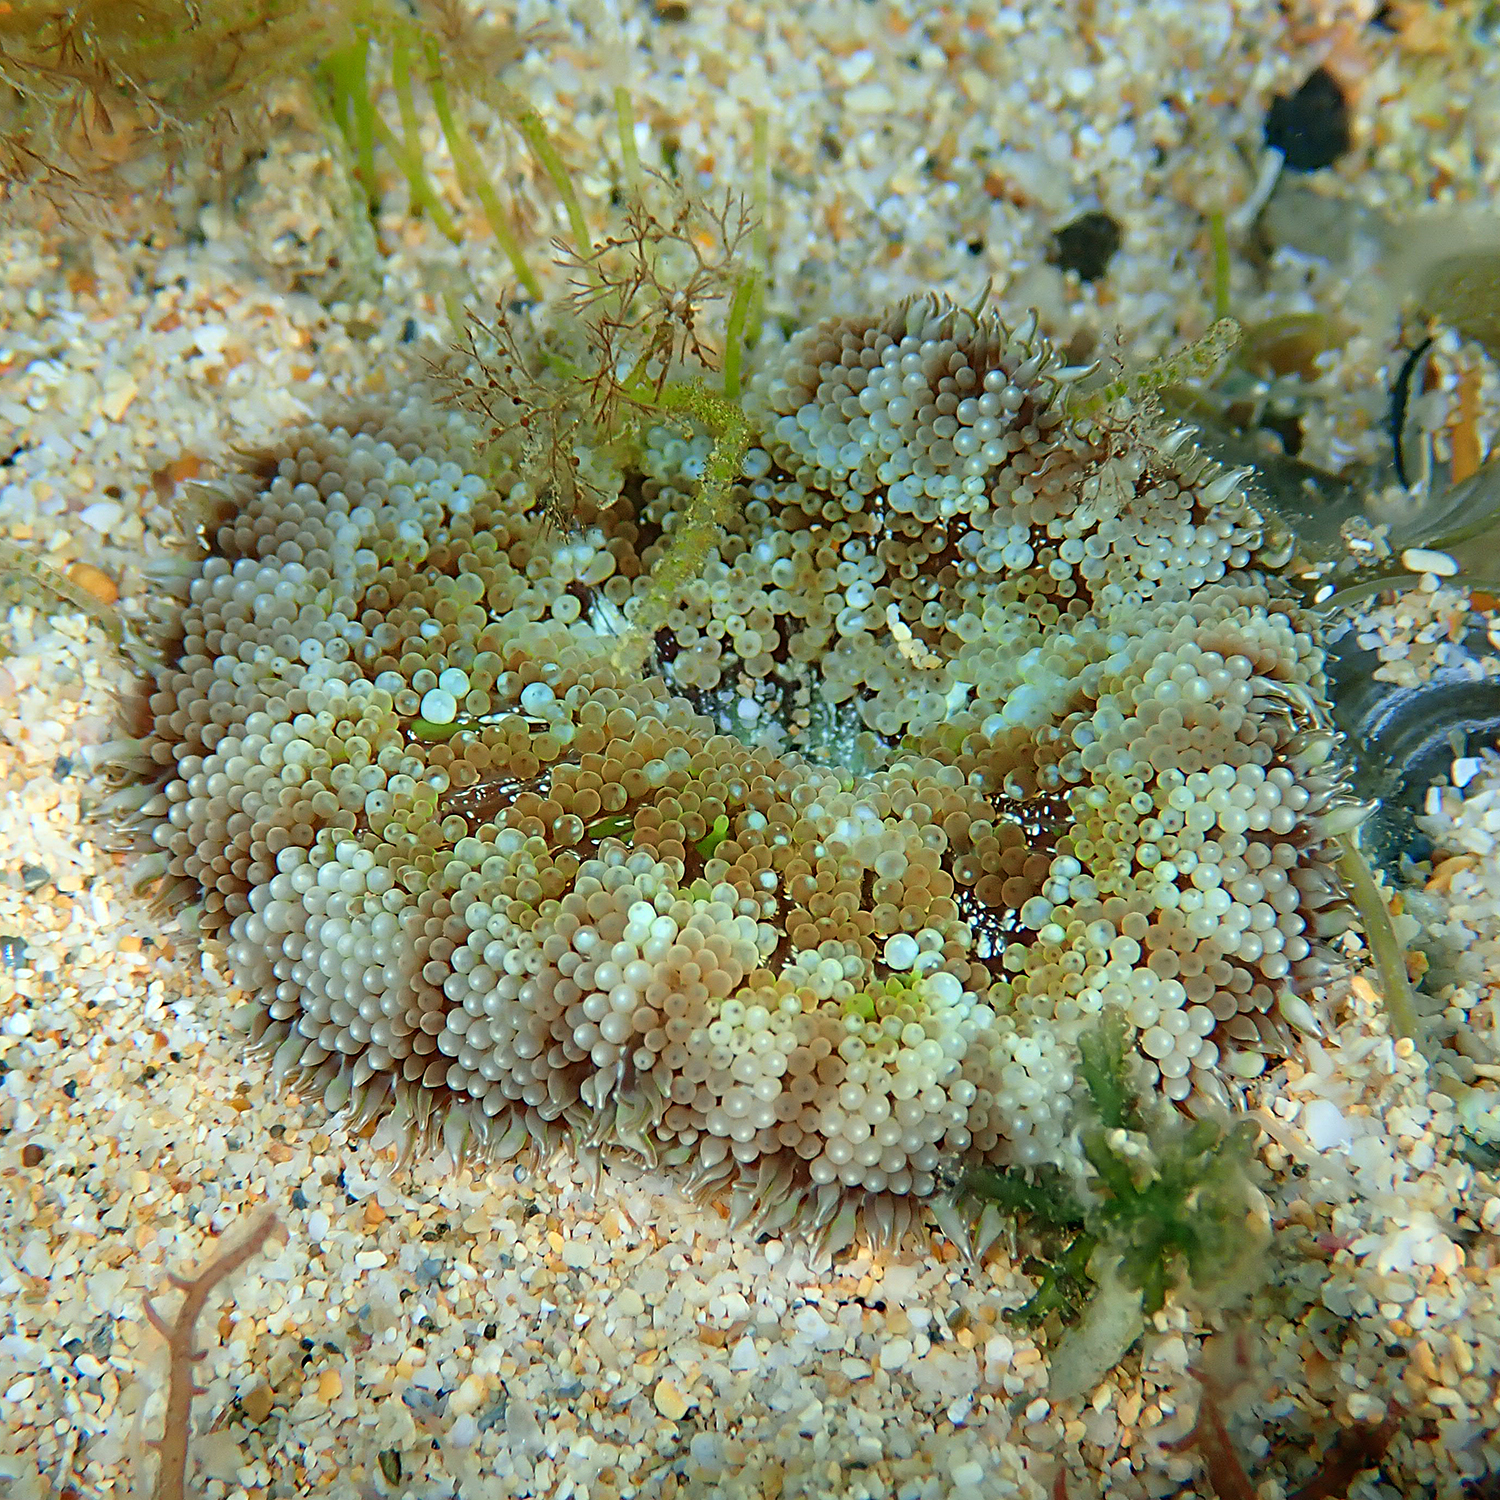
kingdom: Animalia
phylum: Cnidaria
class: Anthozoa
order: Actiniaria
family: Stichodactylidae
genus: Stichodactyla
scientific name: Stichodactyla tapetum
